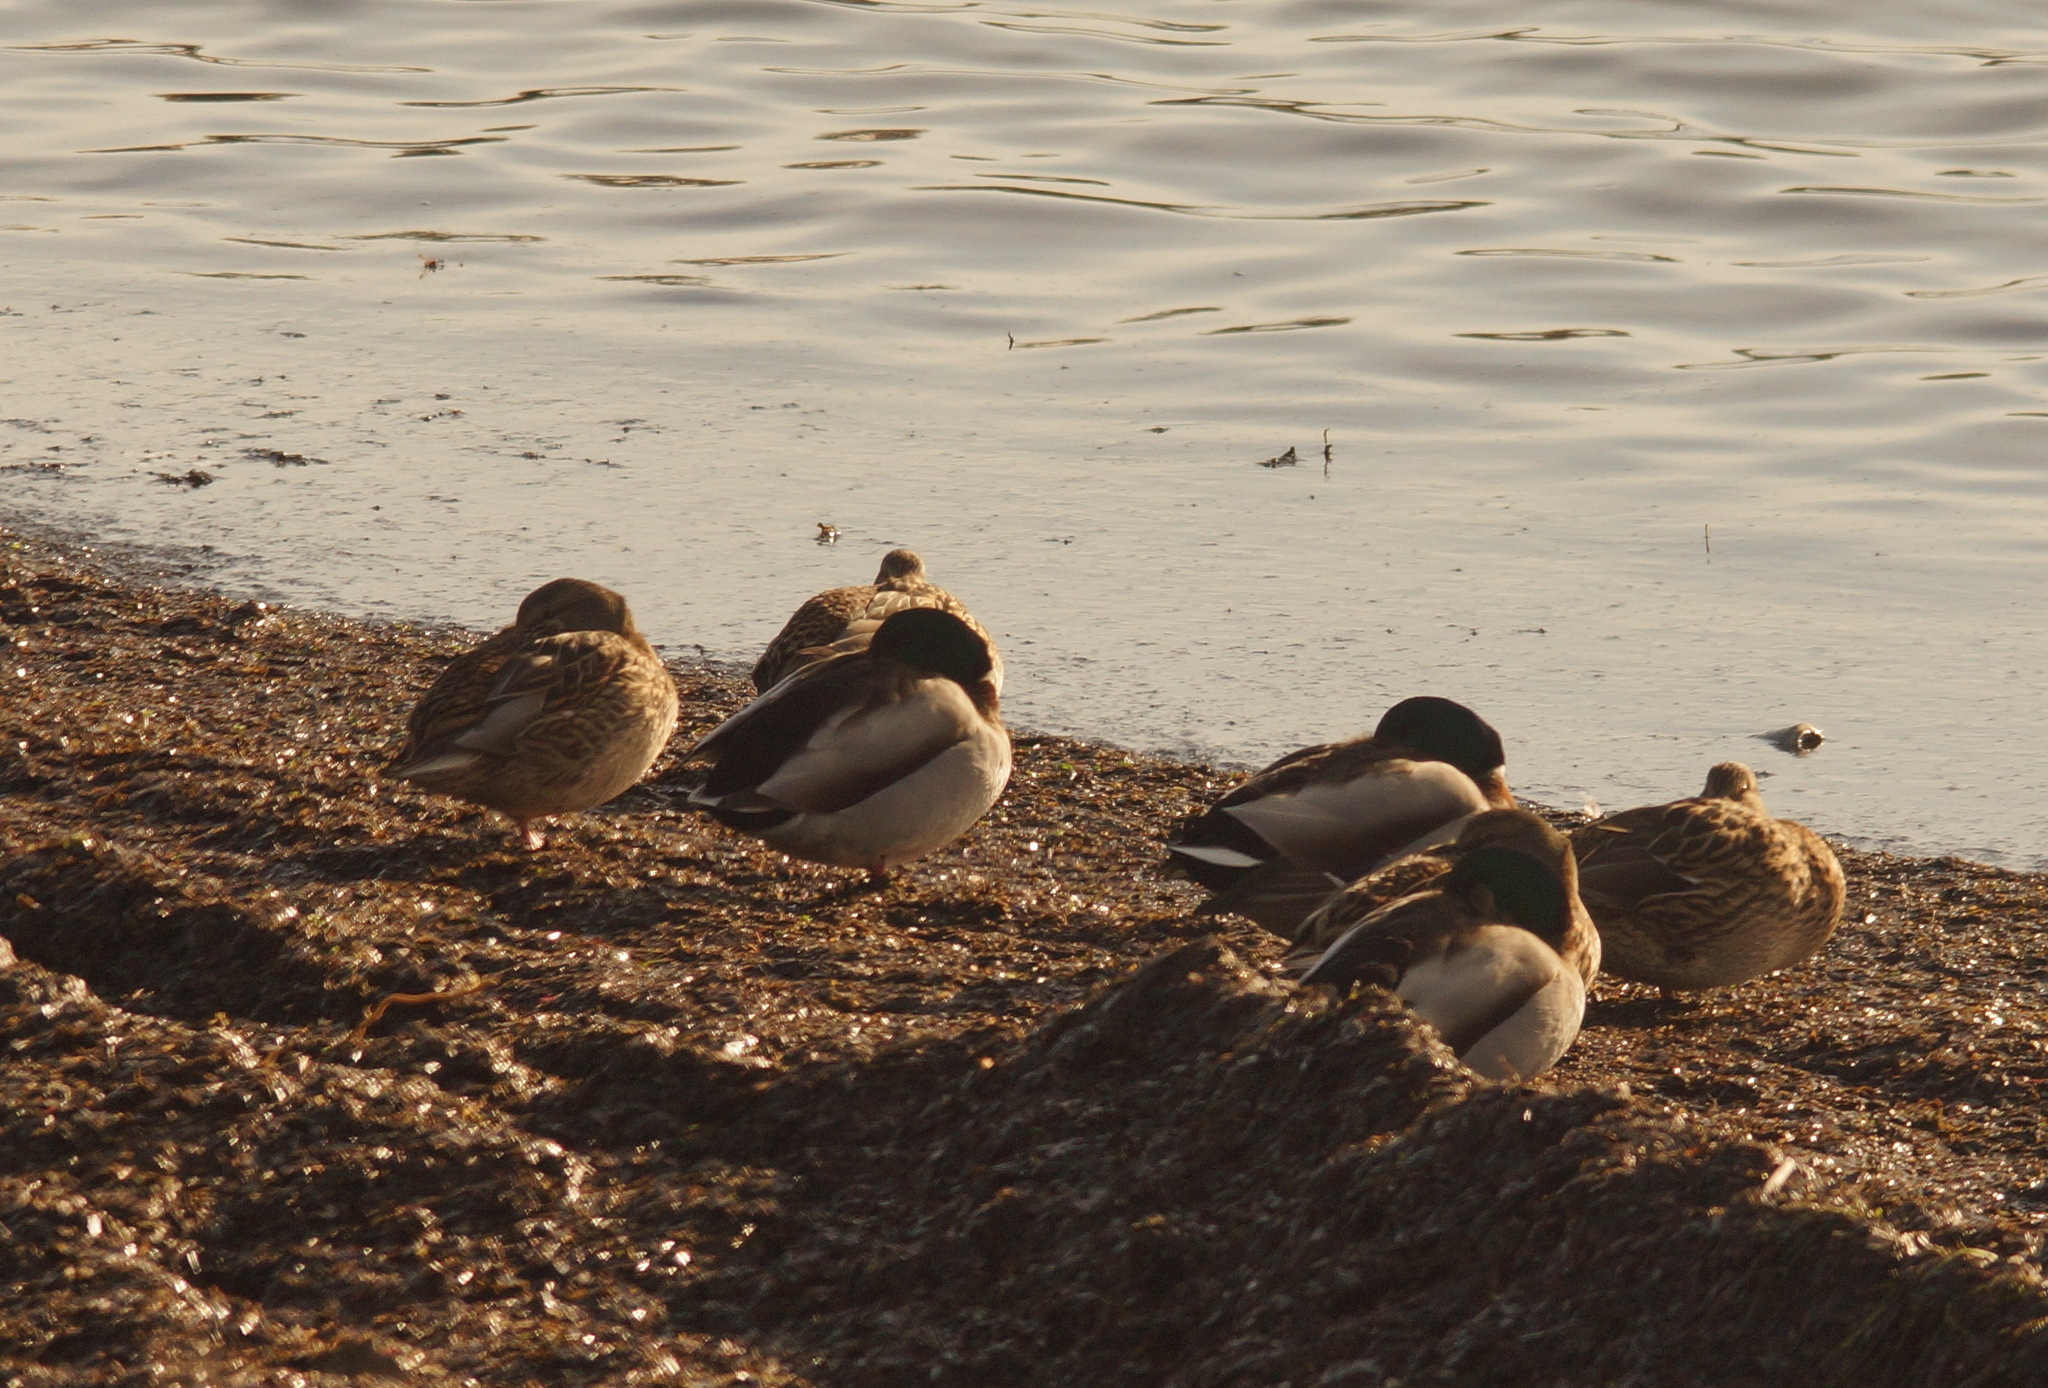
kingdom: Animalia
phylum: Chordata
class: Aves
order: Anseriformes
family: Anatidae
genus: Anas
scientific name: Anas platyrhynchos
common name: Mallard
